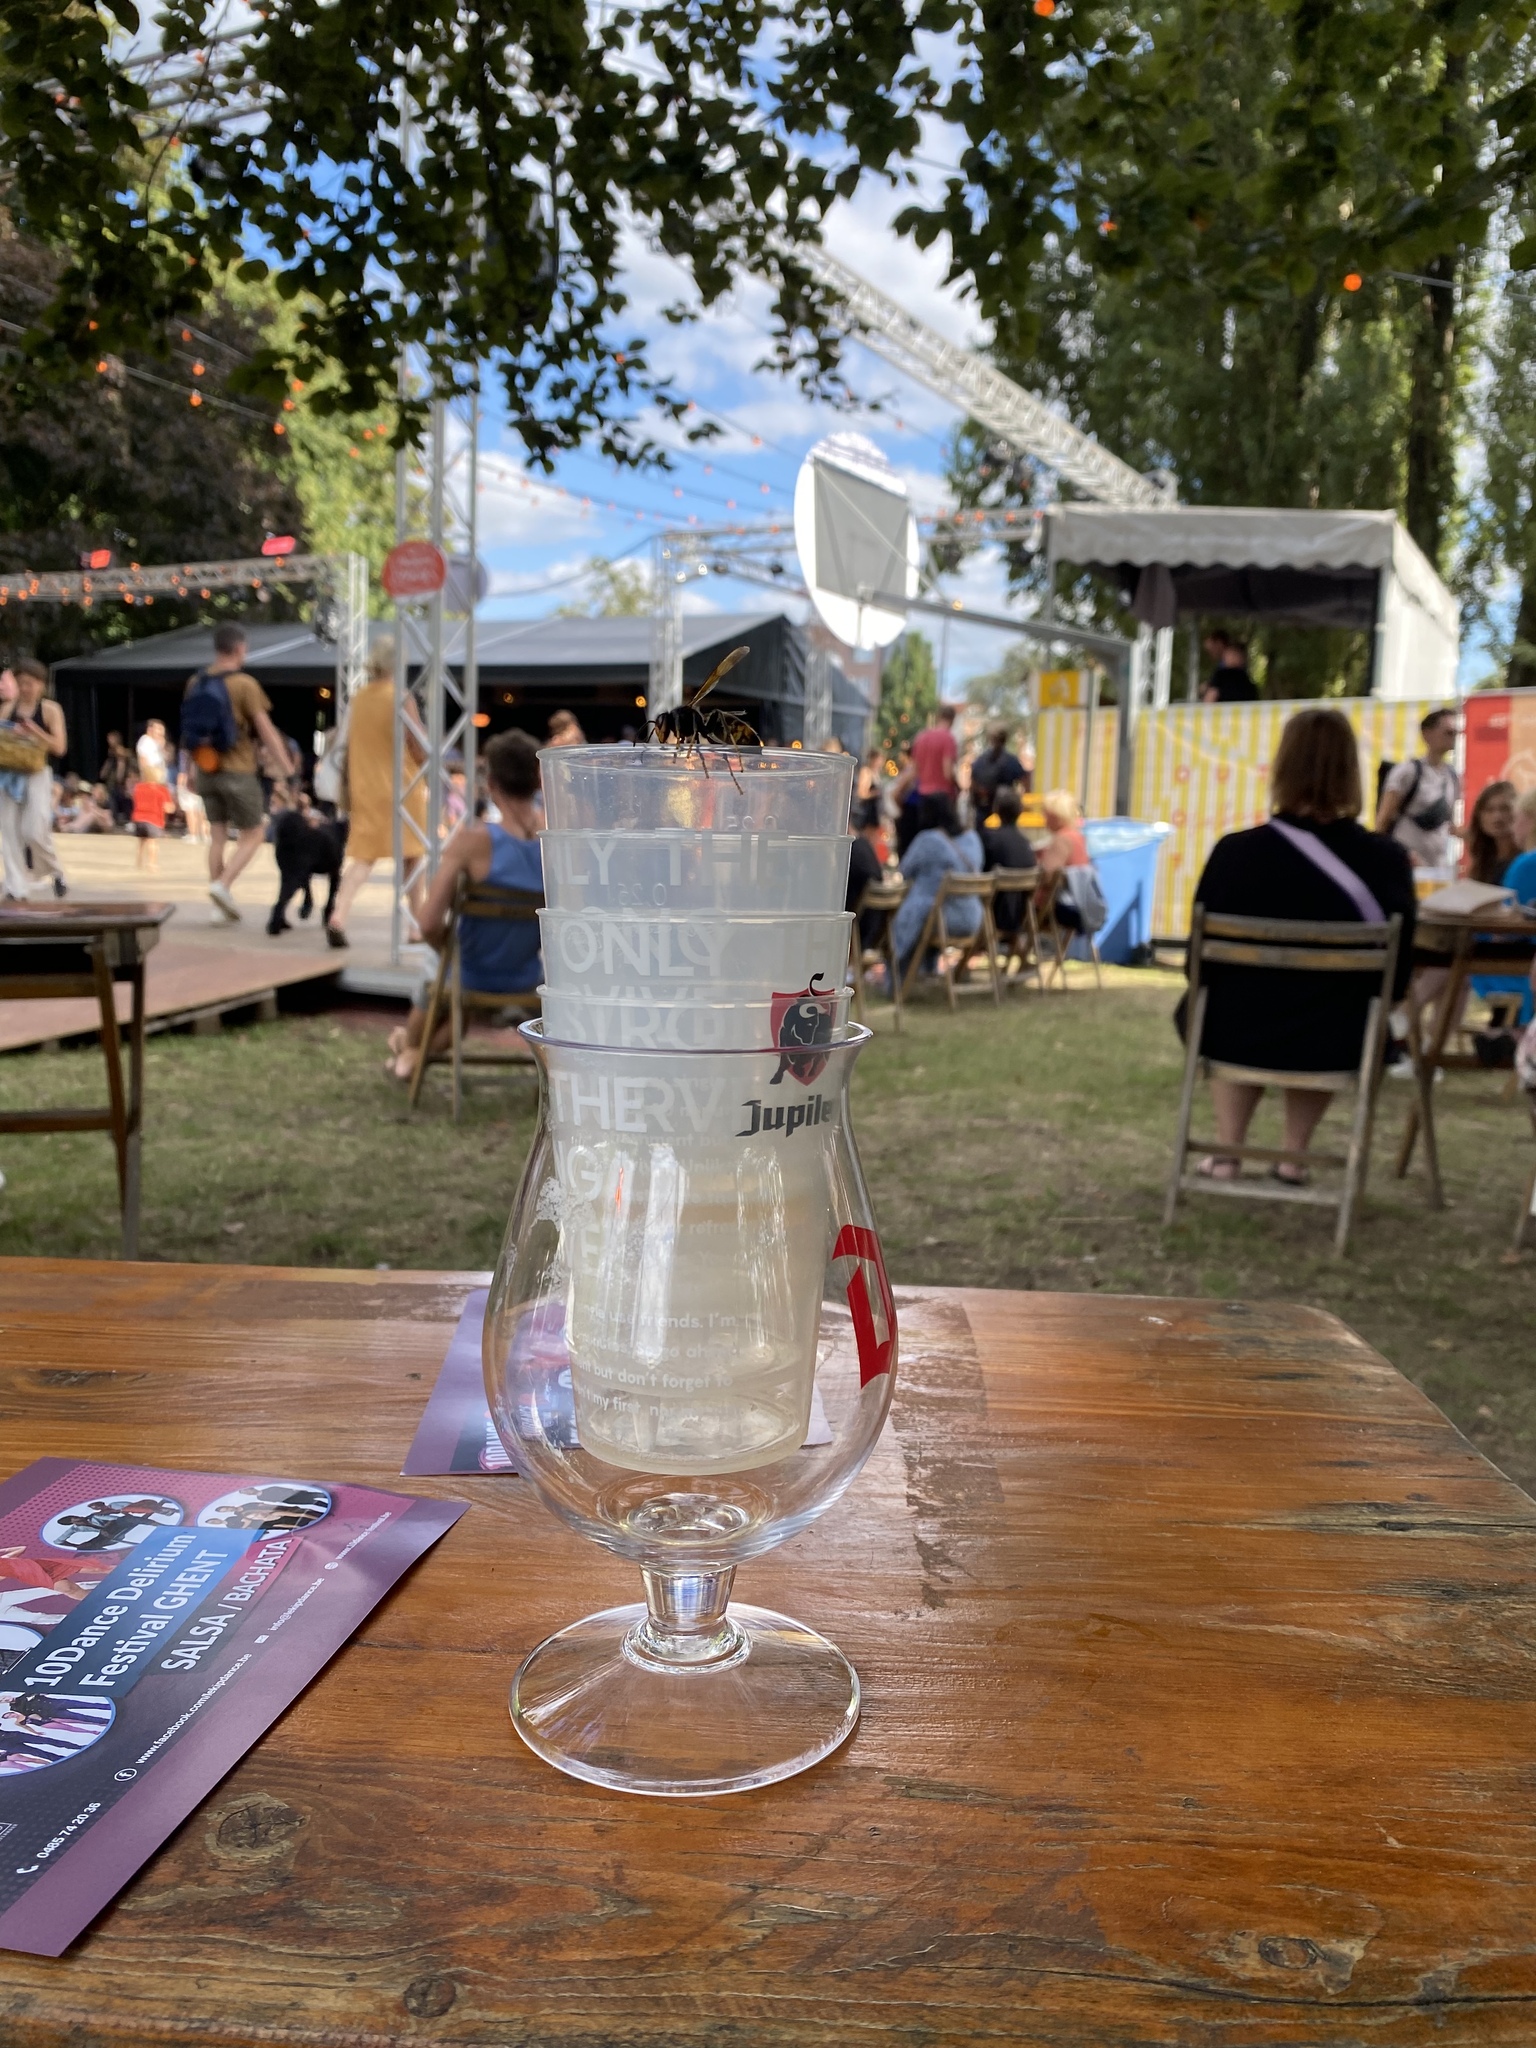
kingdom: Animalia
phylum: Arthropoda
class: Insecta
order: Hymenoptera
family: Vespidae
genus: Vespa
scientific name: Vespa velutina
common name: Asian hornet
